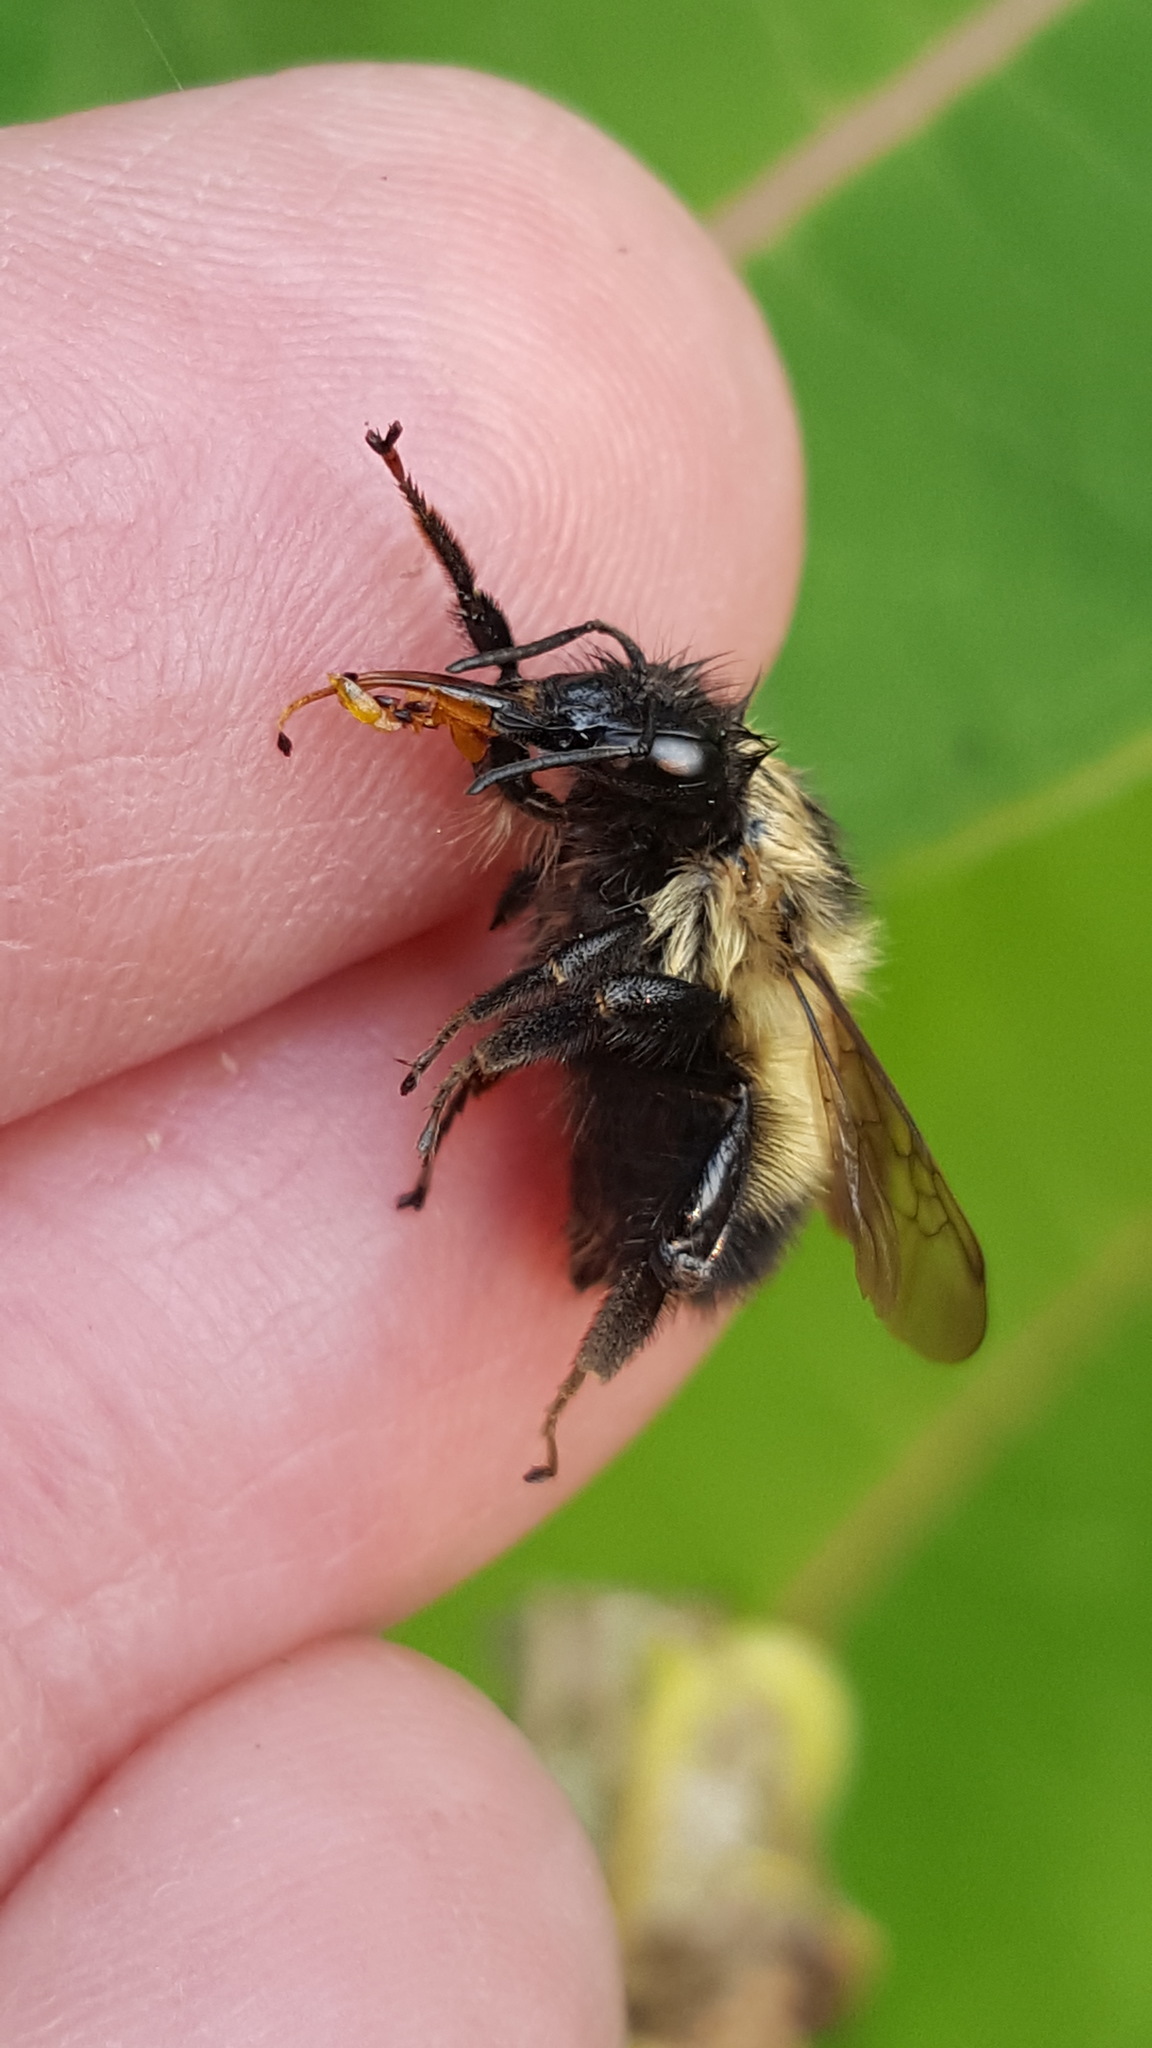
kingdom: Animalia
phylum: Arthropoda
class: Insecta
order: Hymenoptera
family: Apidae
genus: Bombus
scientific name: Bombus sandersoni
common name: Sanderson bumble bee
